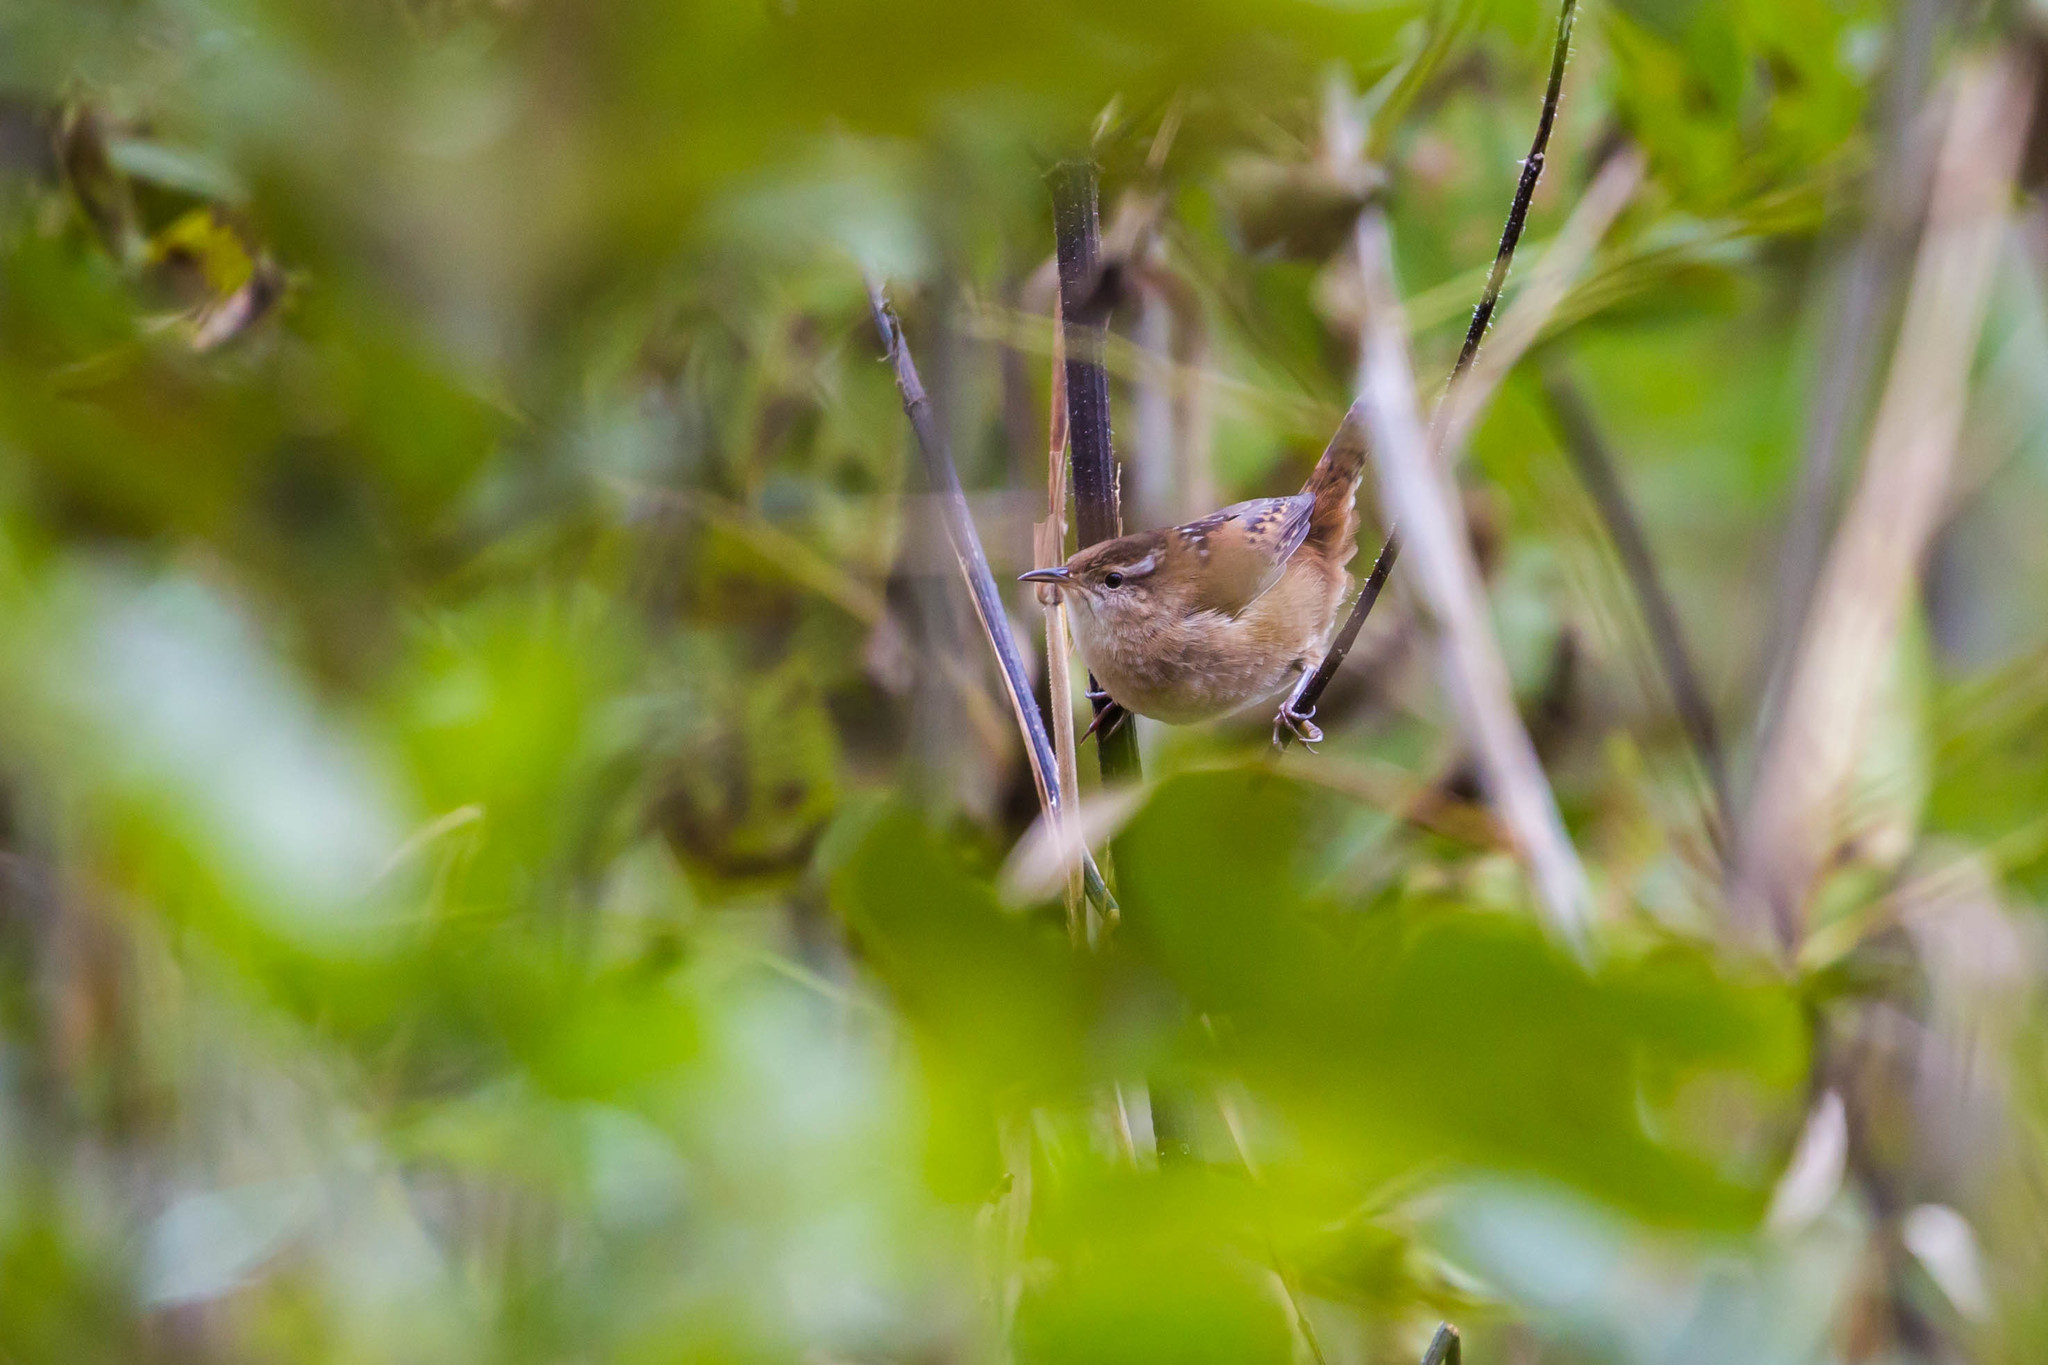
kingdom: Animalia
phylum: Chordata
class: Aves
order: Passeriformes
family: Troglodytidae
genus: Cistothorus
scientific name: Cistothorus palustris
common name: Marsh wren
